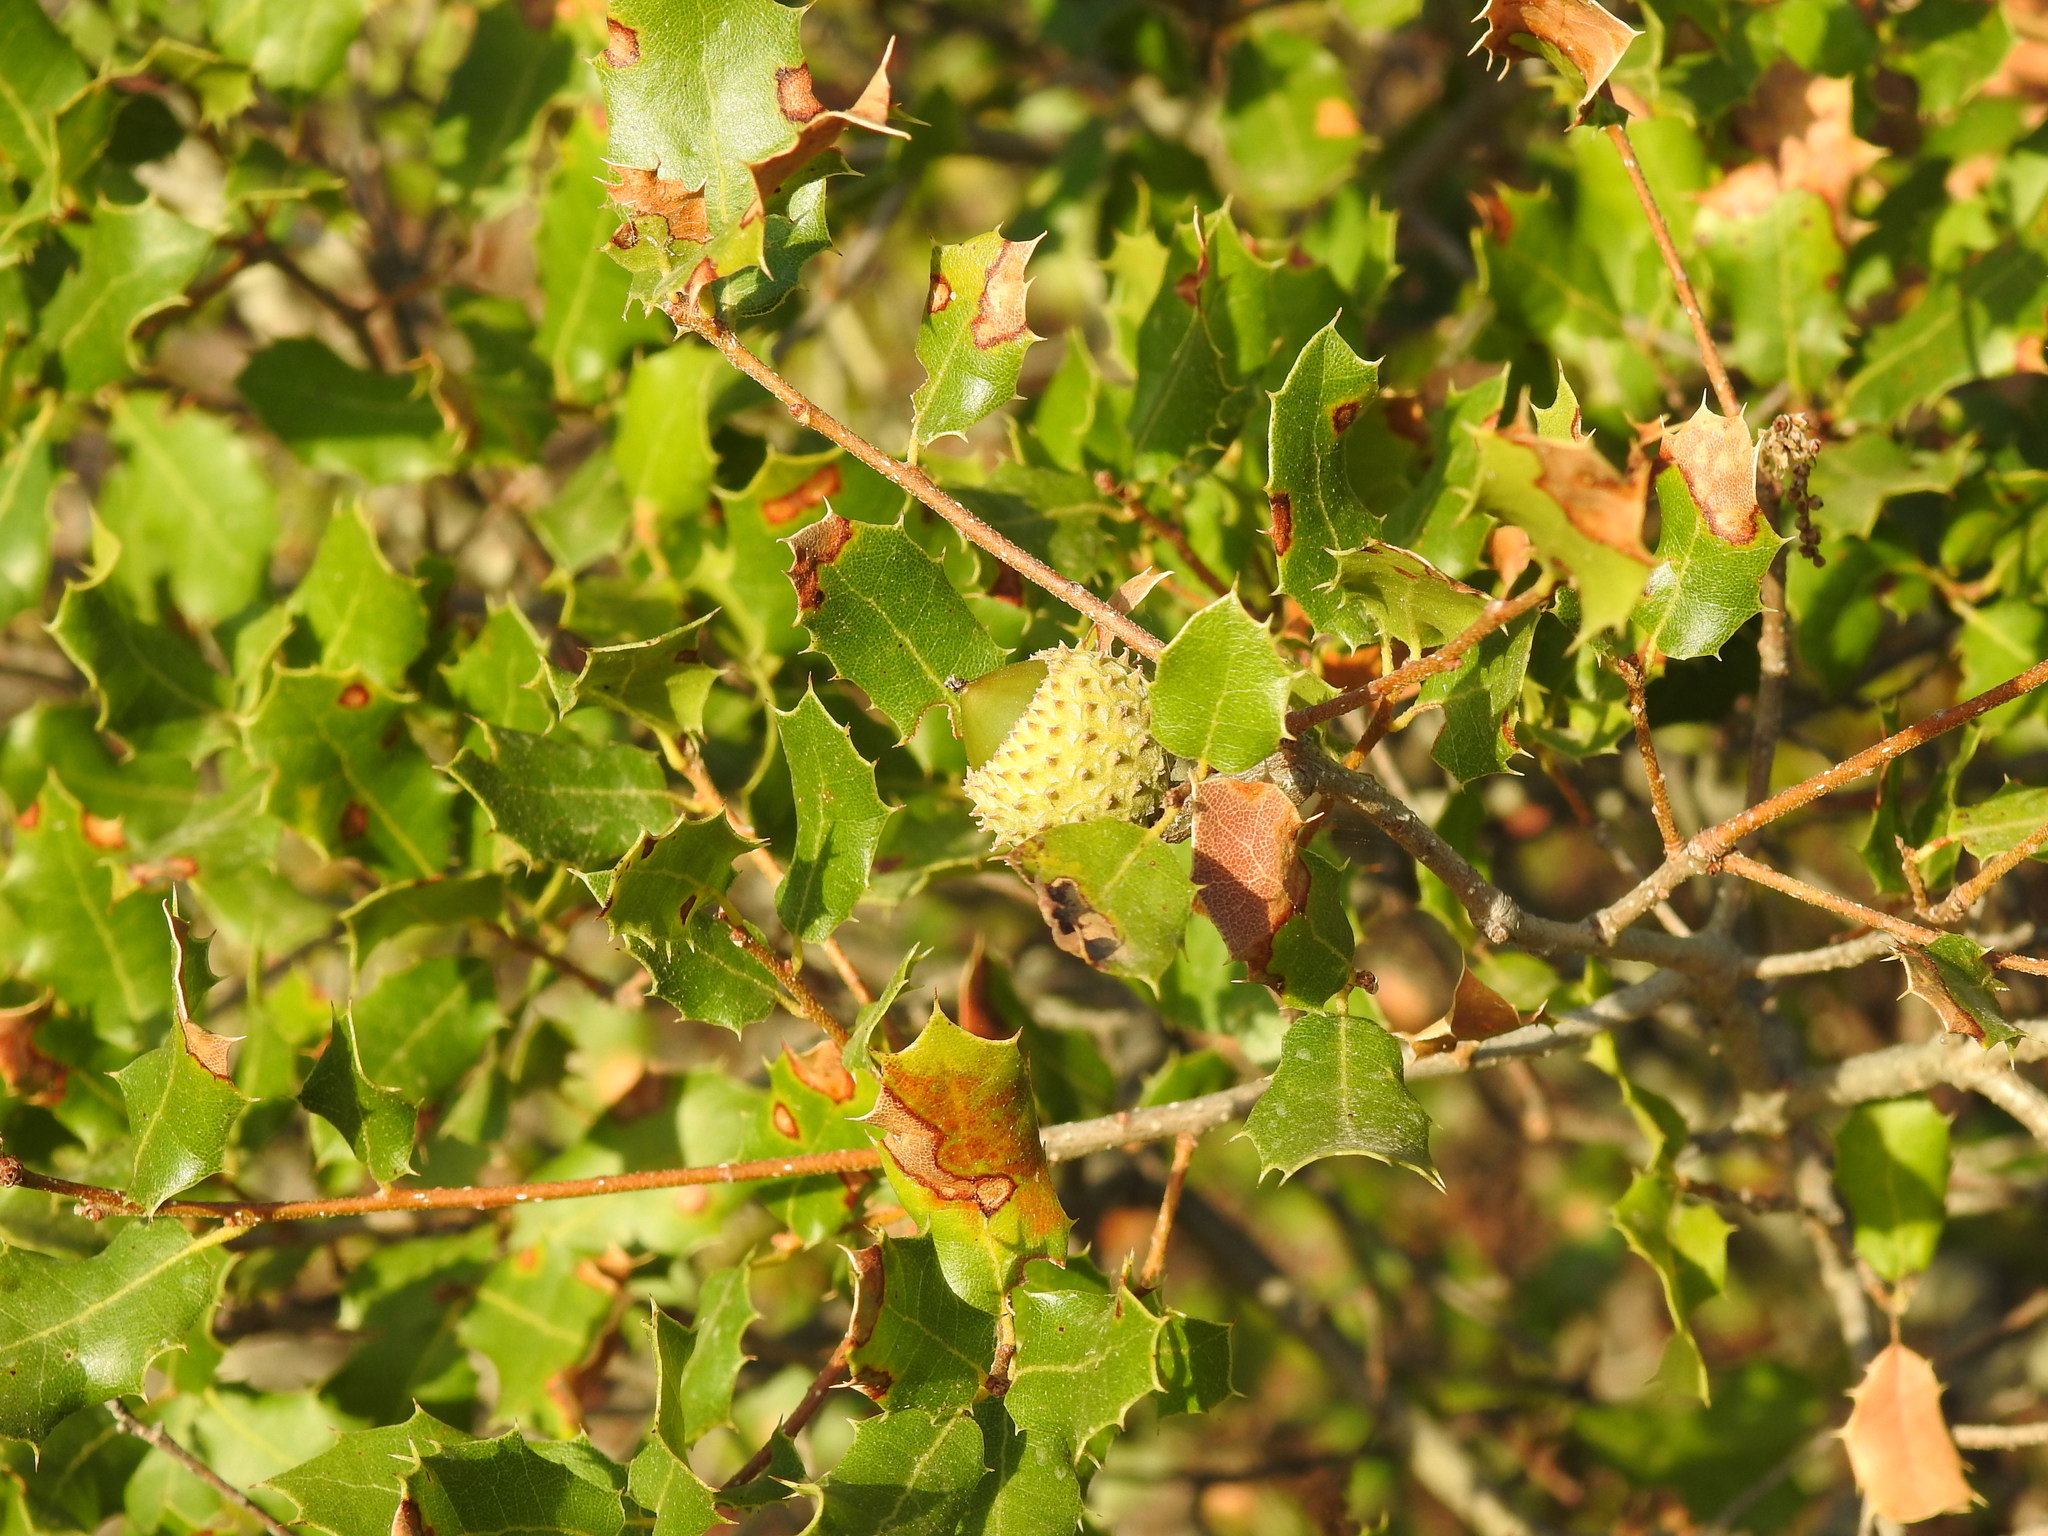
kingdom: Plantae
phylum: Tracheophyta
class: Magnoliopsida
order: Fagales
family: Fagaceae
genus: Quercus
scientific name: Quercus coccifera
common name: Kermes oak
